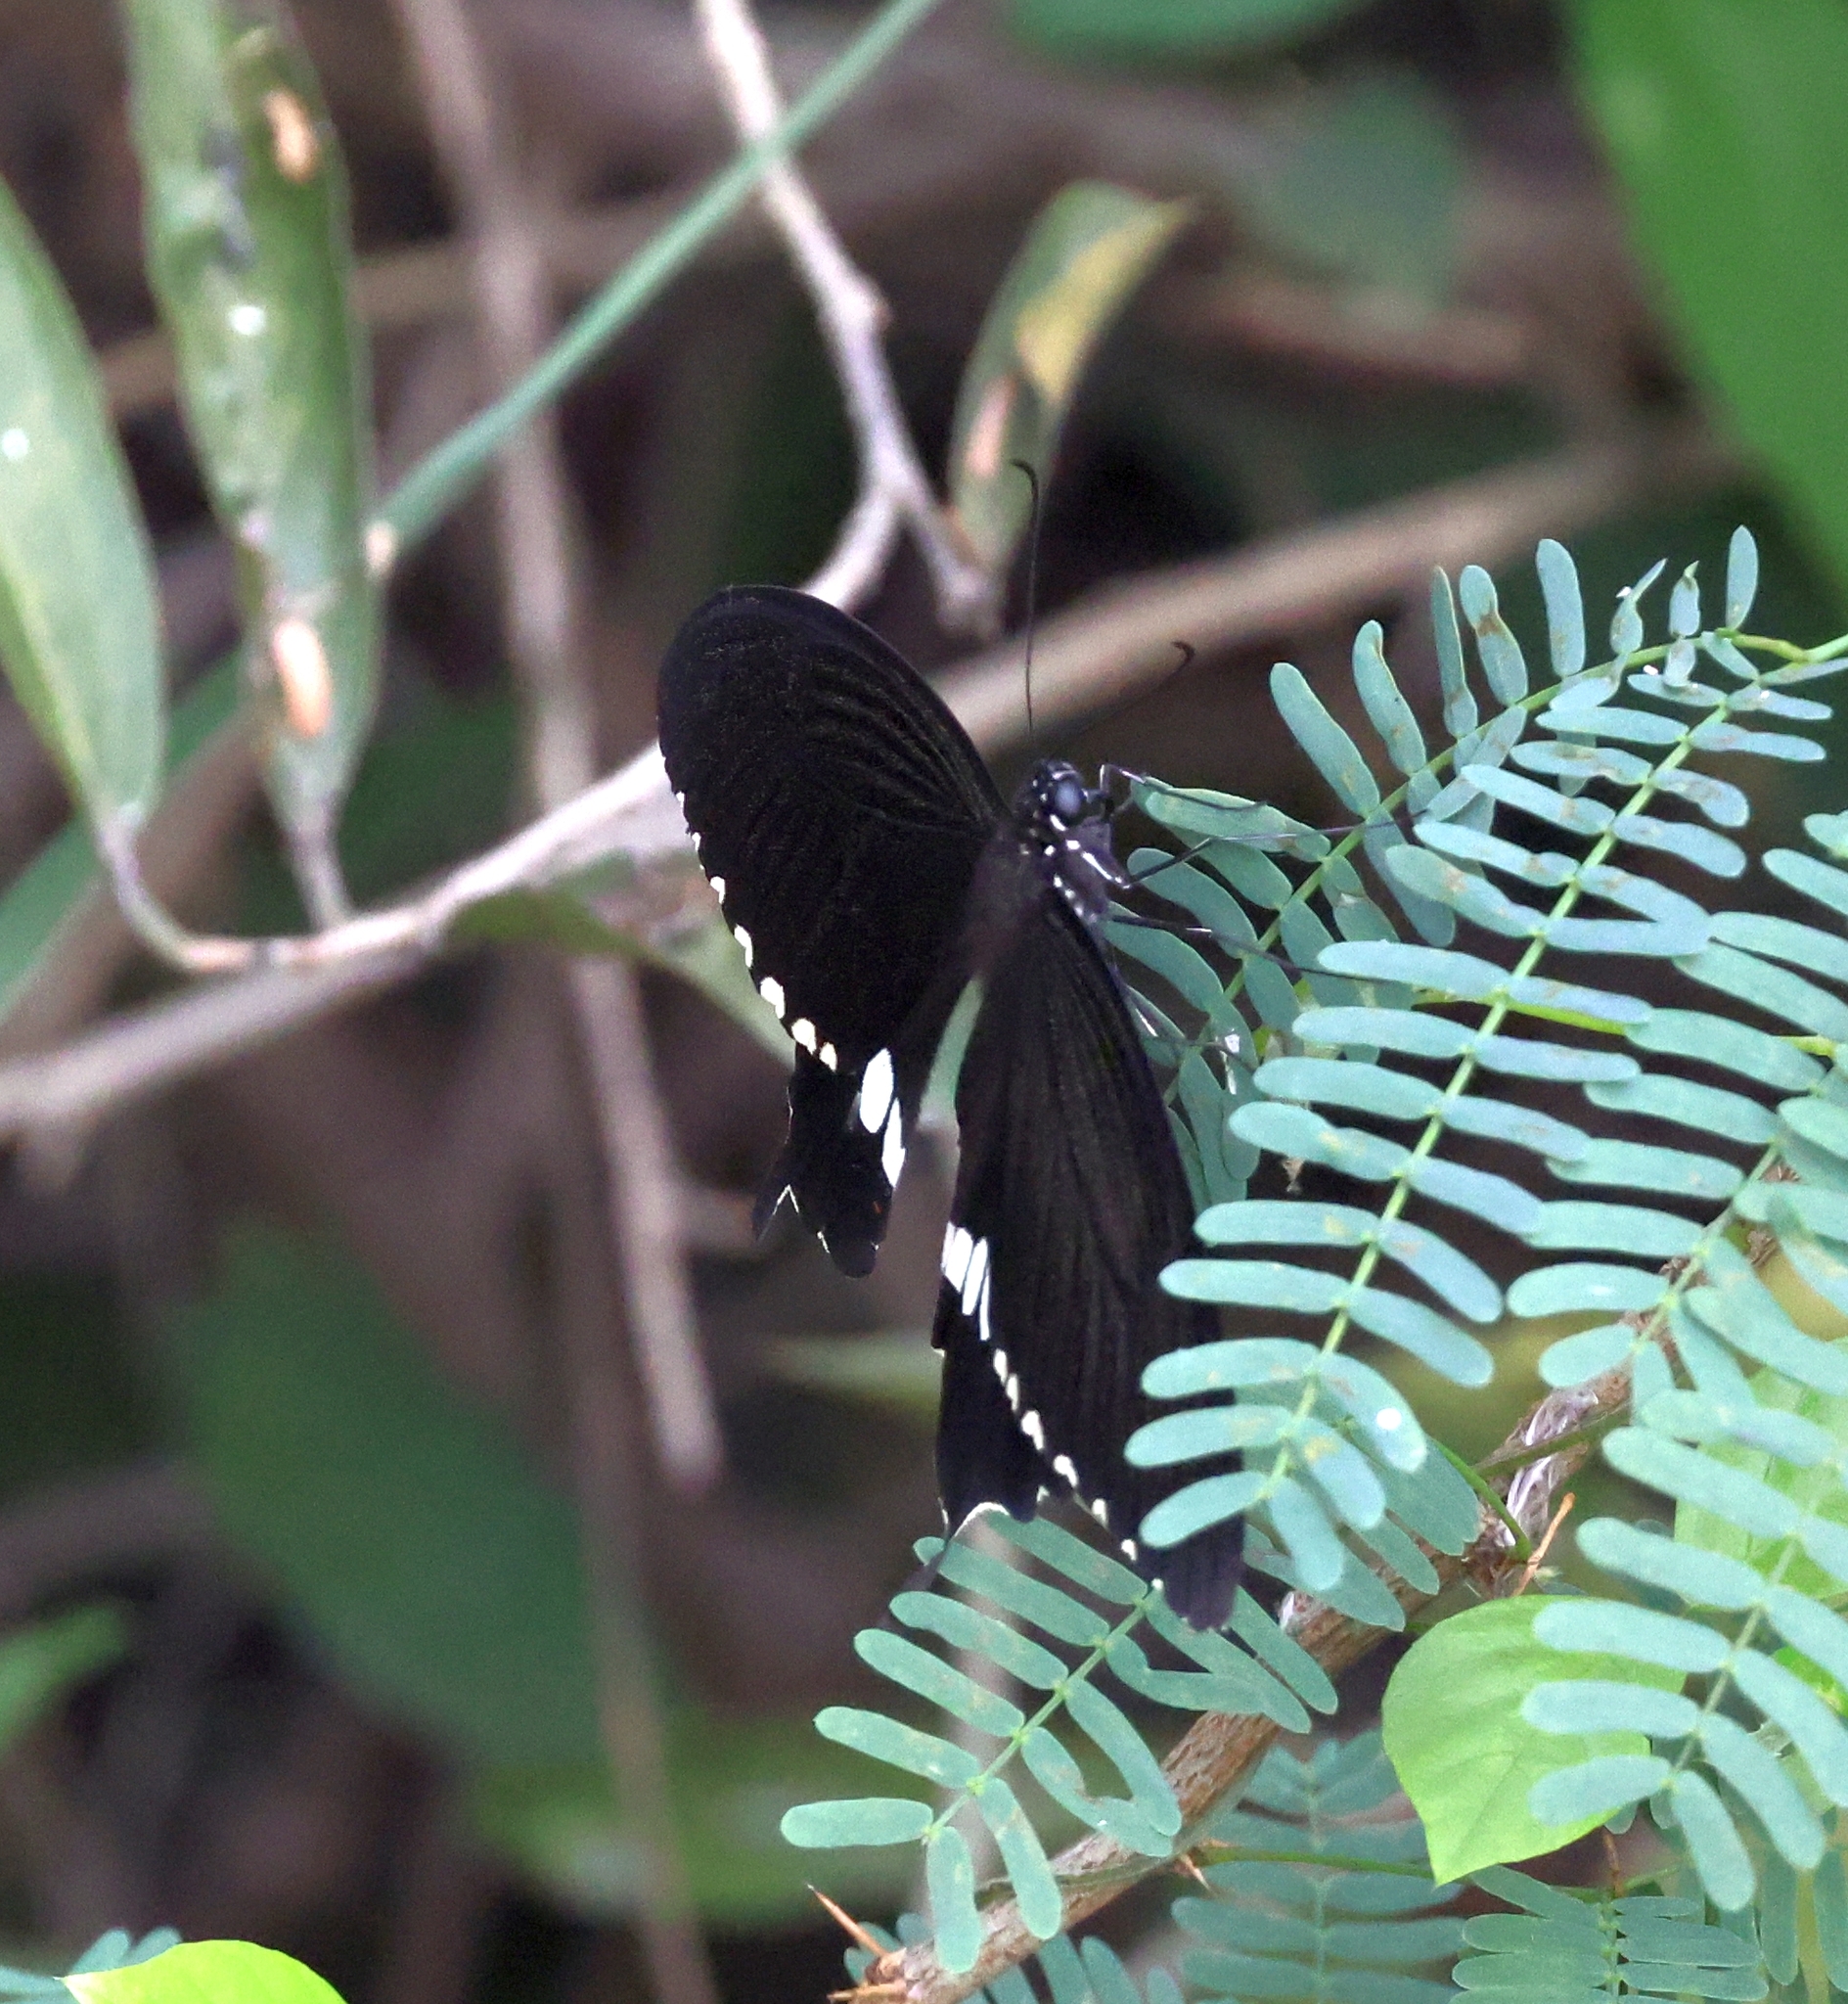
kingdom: Animalia
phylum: Arthropoda
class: Insecta
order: Lepidoptera
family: Papilionidae
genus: Papilio
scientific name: Papilio polytes
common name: Common mormon
